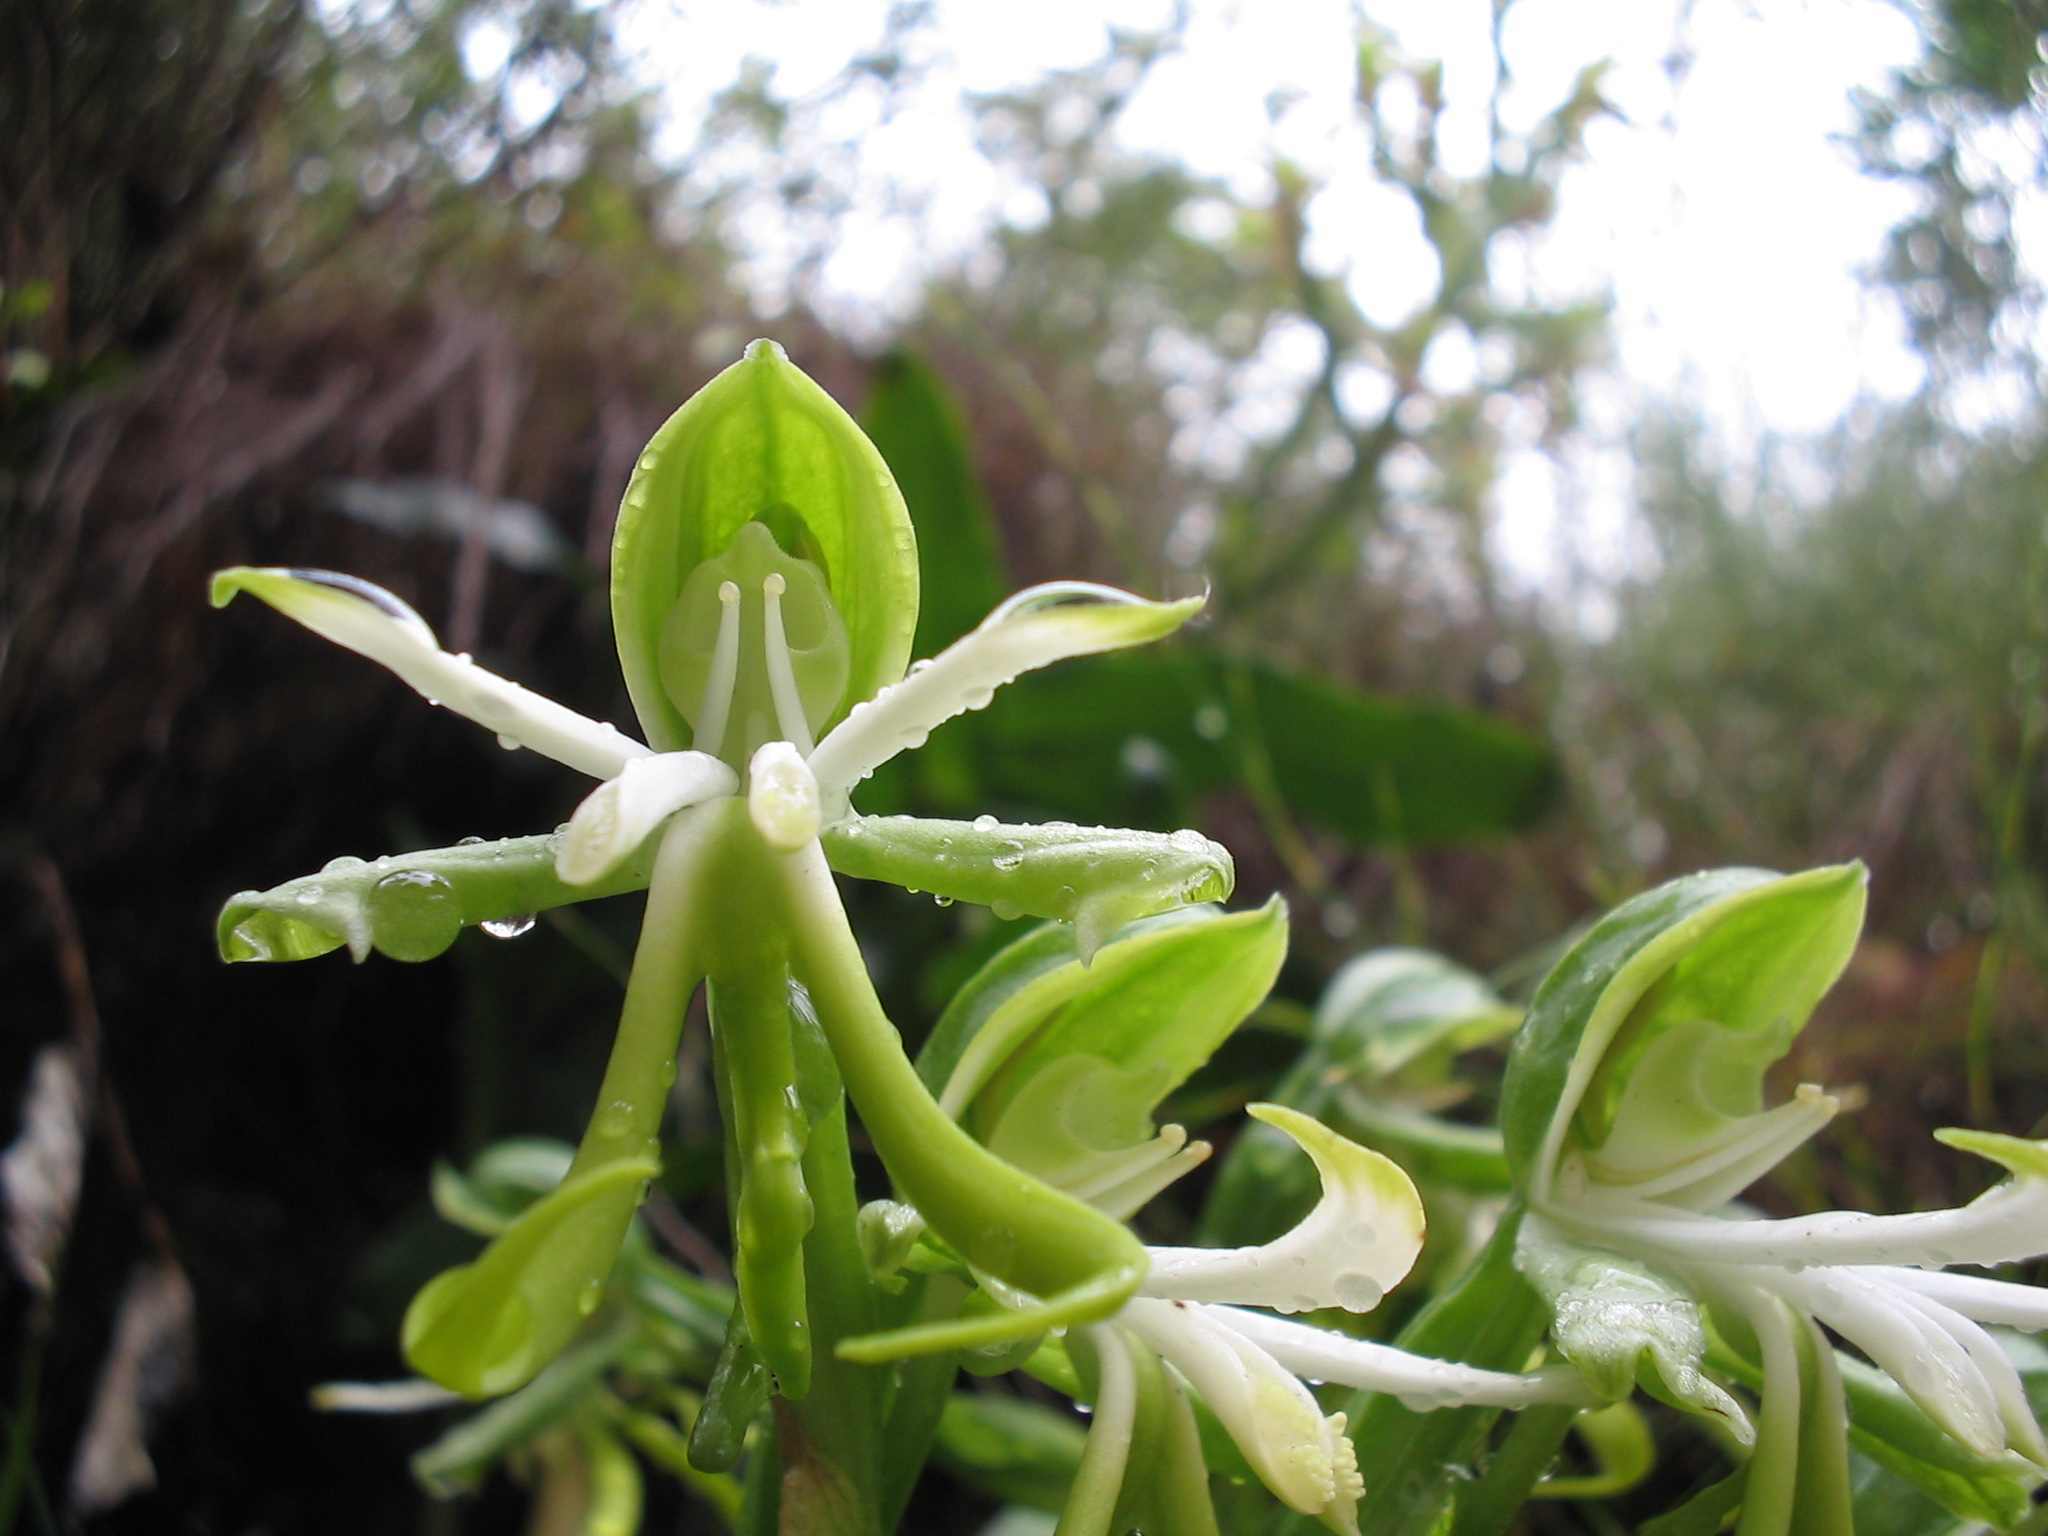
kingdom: Plantae
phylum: Tracheophyta
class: Liliopsida
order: Asparagales
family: Orchidaceae
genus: Bonatea
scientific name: Bonatea speciosa
